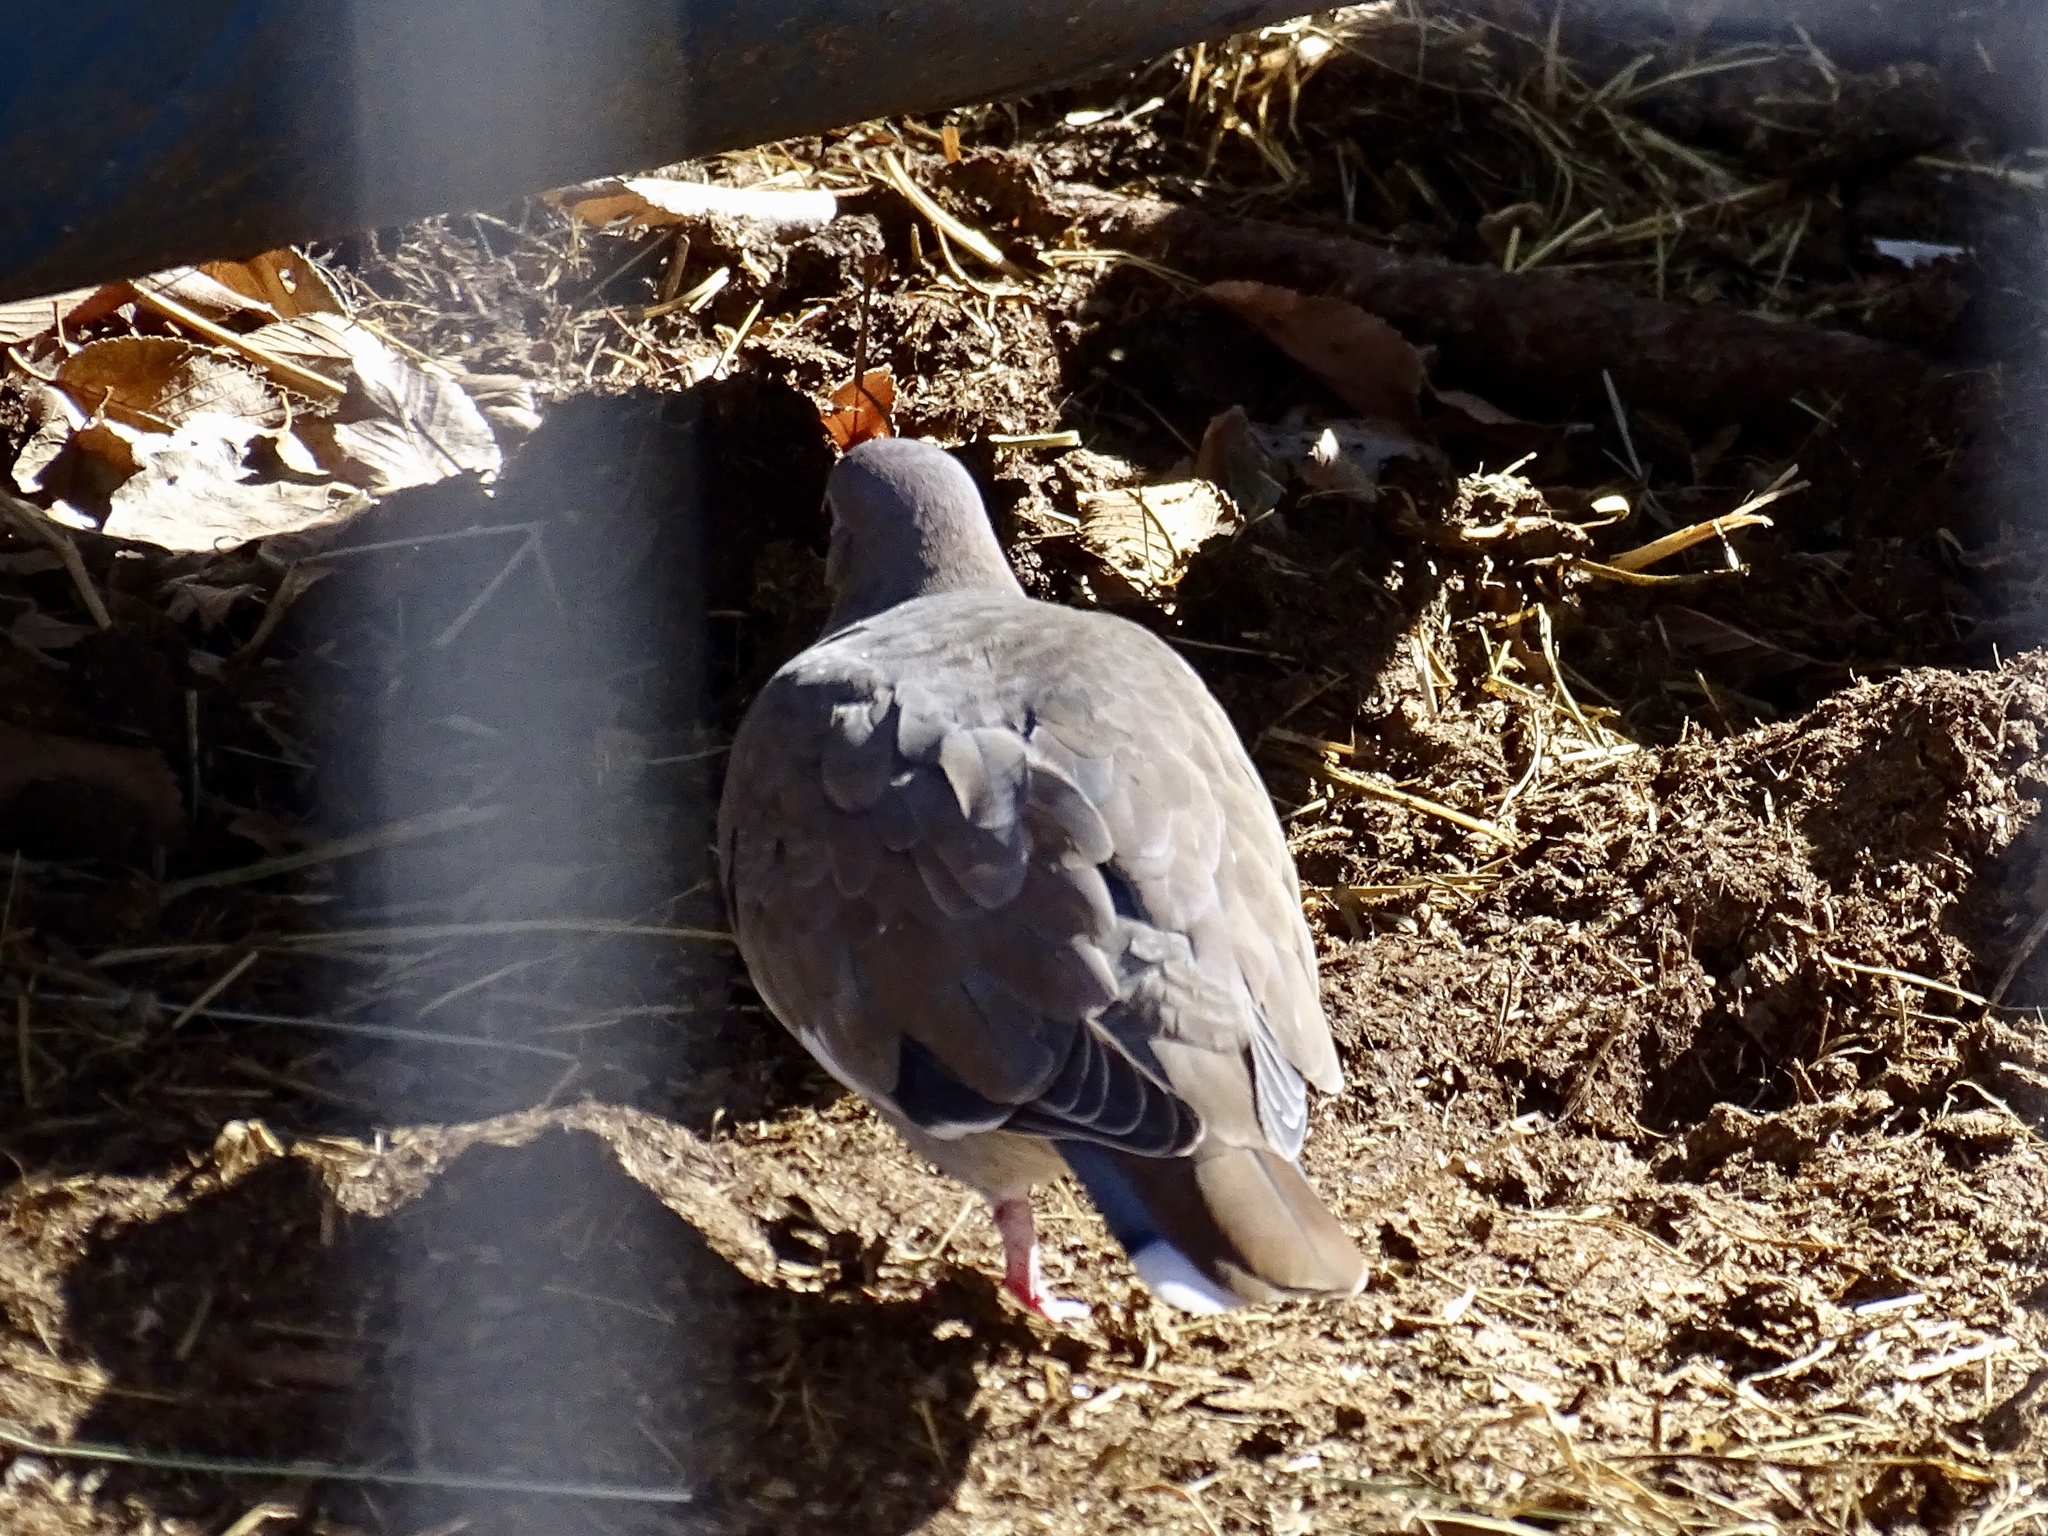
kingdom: Animalia
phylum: Chordata
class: Aves
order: Columbiformes
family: Columbidae
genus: Zenaida
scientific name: Zenaida asiatica
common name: White-winged dove
